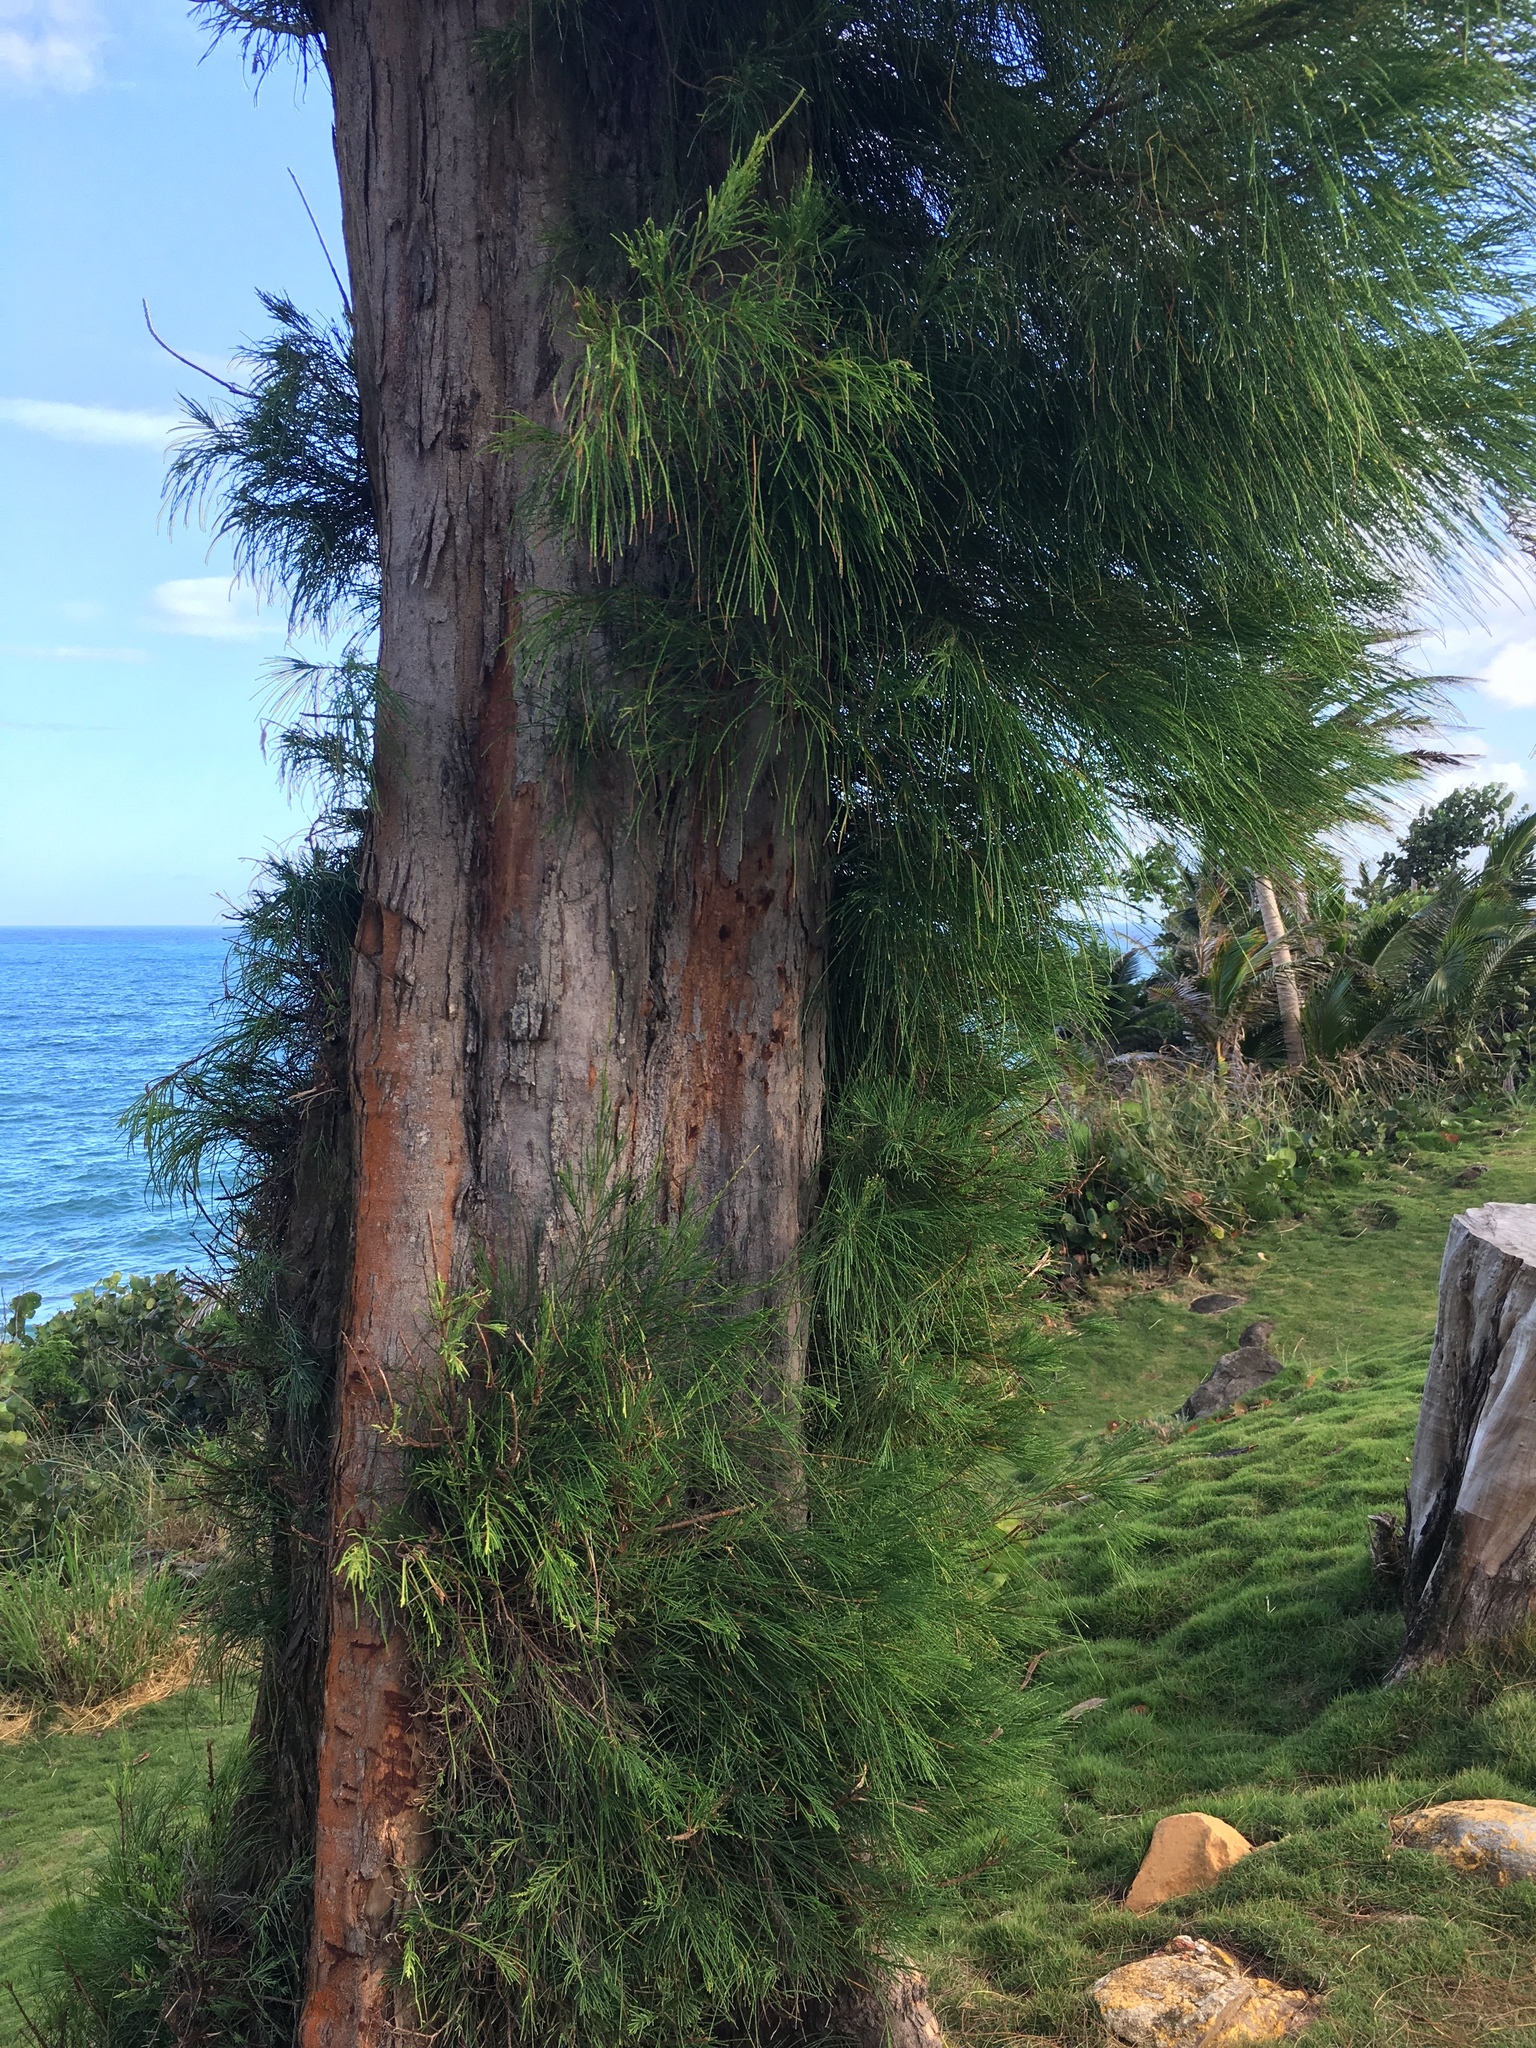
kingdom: Plantae
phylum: Tracheophyta
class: Magnoliopsida
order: Fagales
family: Casuarinaceae
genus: Casuarina
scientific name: Casuarina equisetifolia
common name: Beach sheoak
